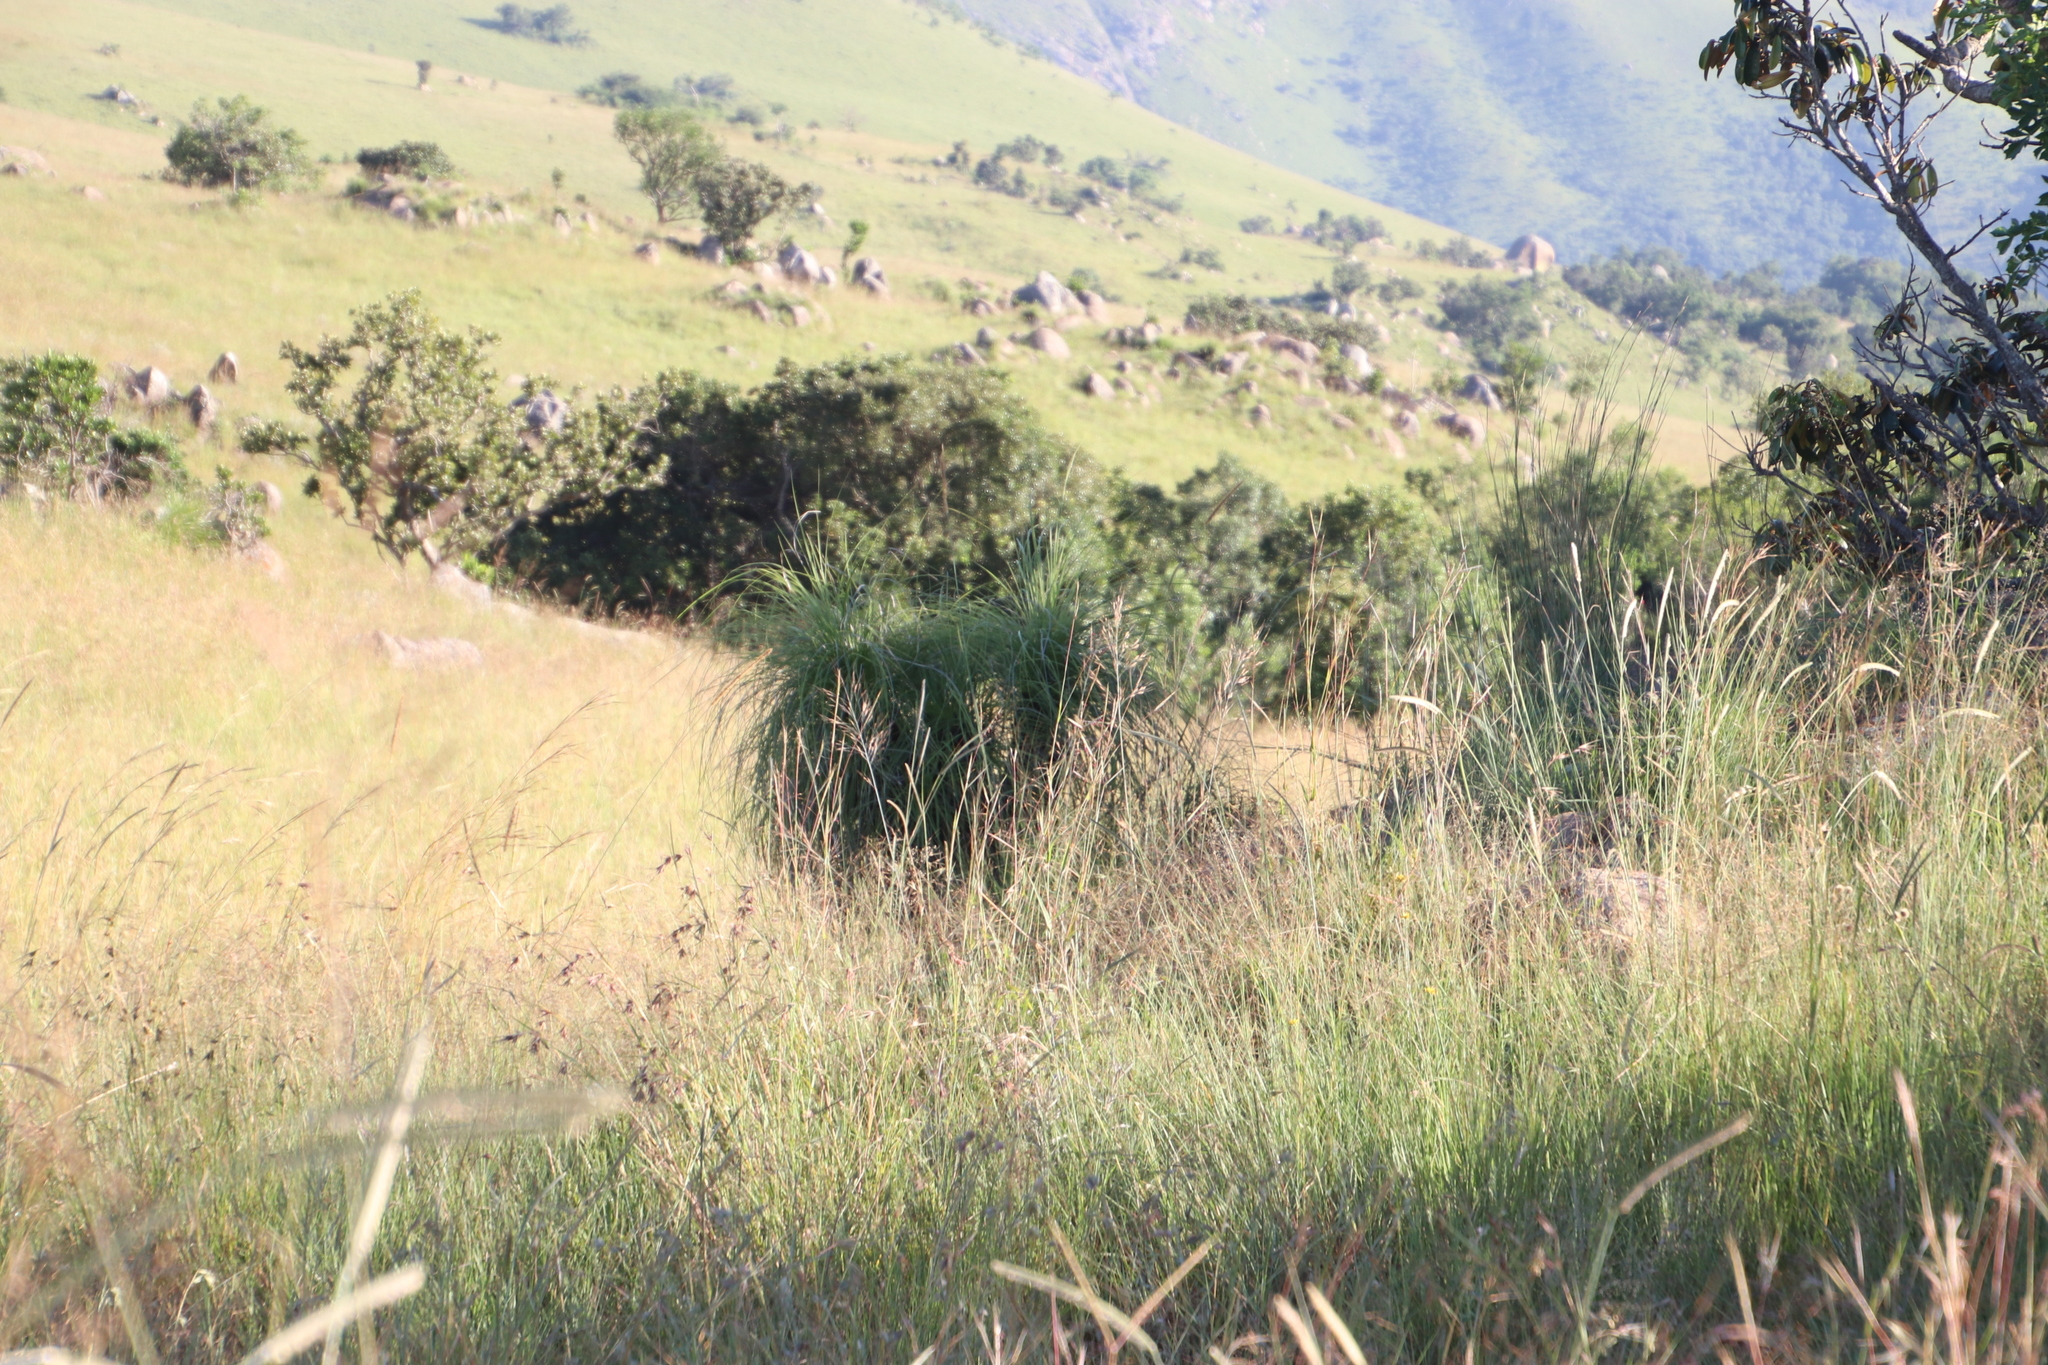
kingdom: Plantae
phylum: Tracheophyta
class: Liliopsida
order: Pandanales
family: Velloziaceae
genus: Xerophyta
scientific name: Xerophyta retinervis
